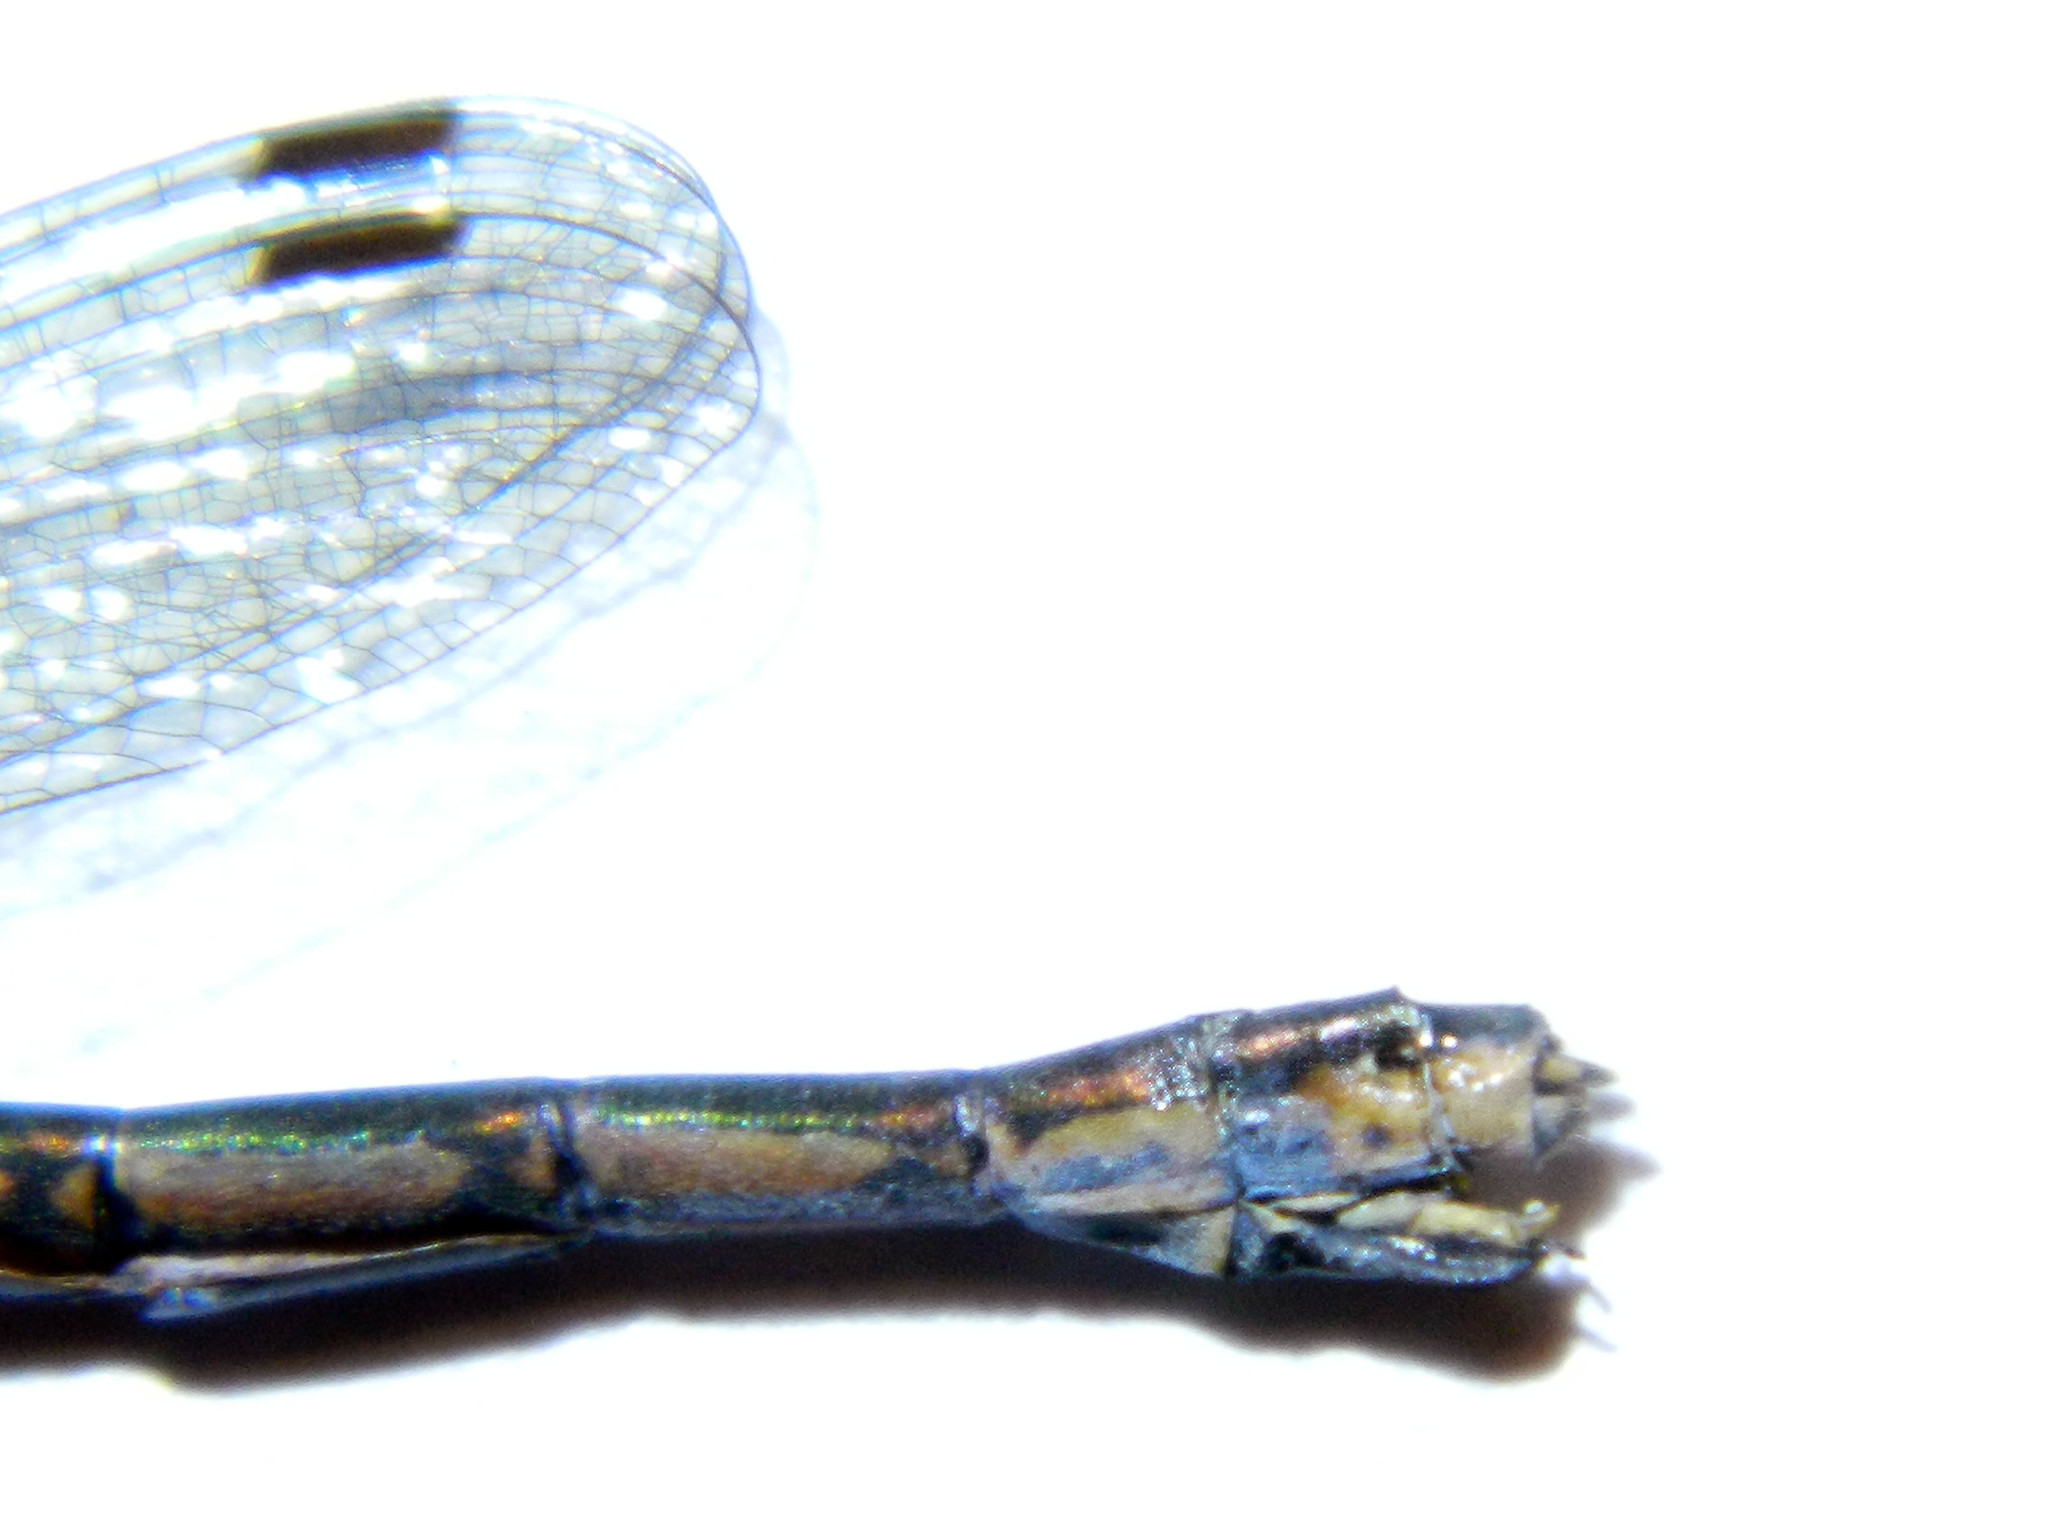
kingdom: Animalia
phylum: Arthropoda
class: Insecta
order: Odonata
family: Lestidae
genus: Lestes
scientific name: Lestes disjunctus
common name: Northern spreadwing
